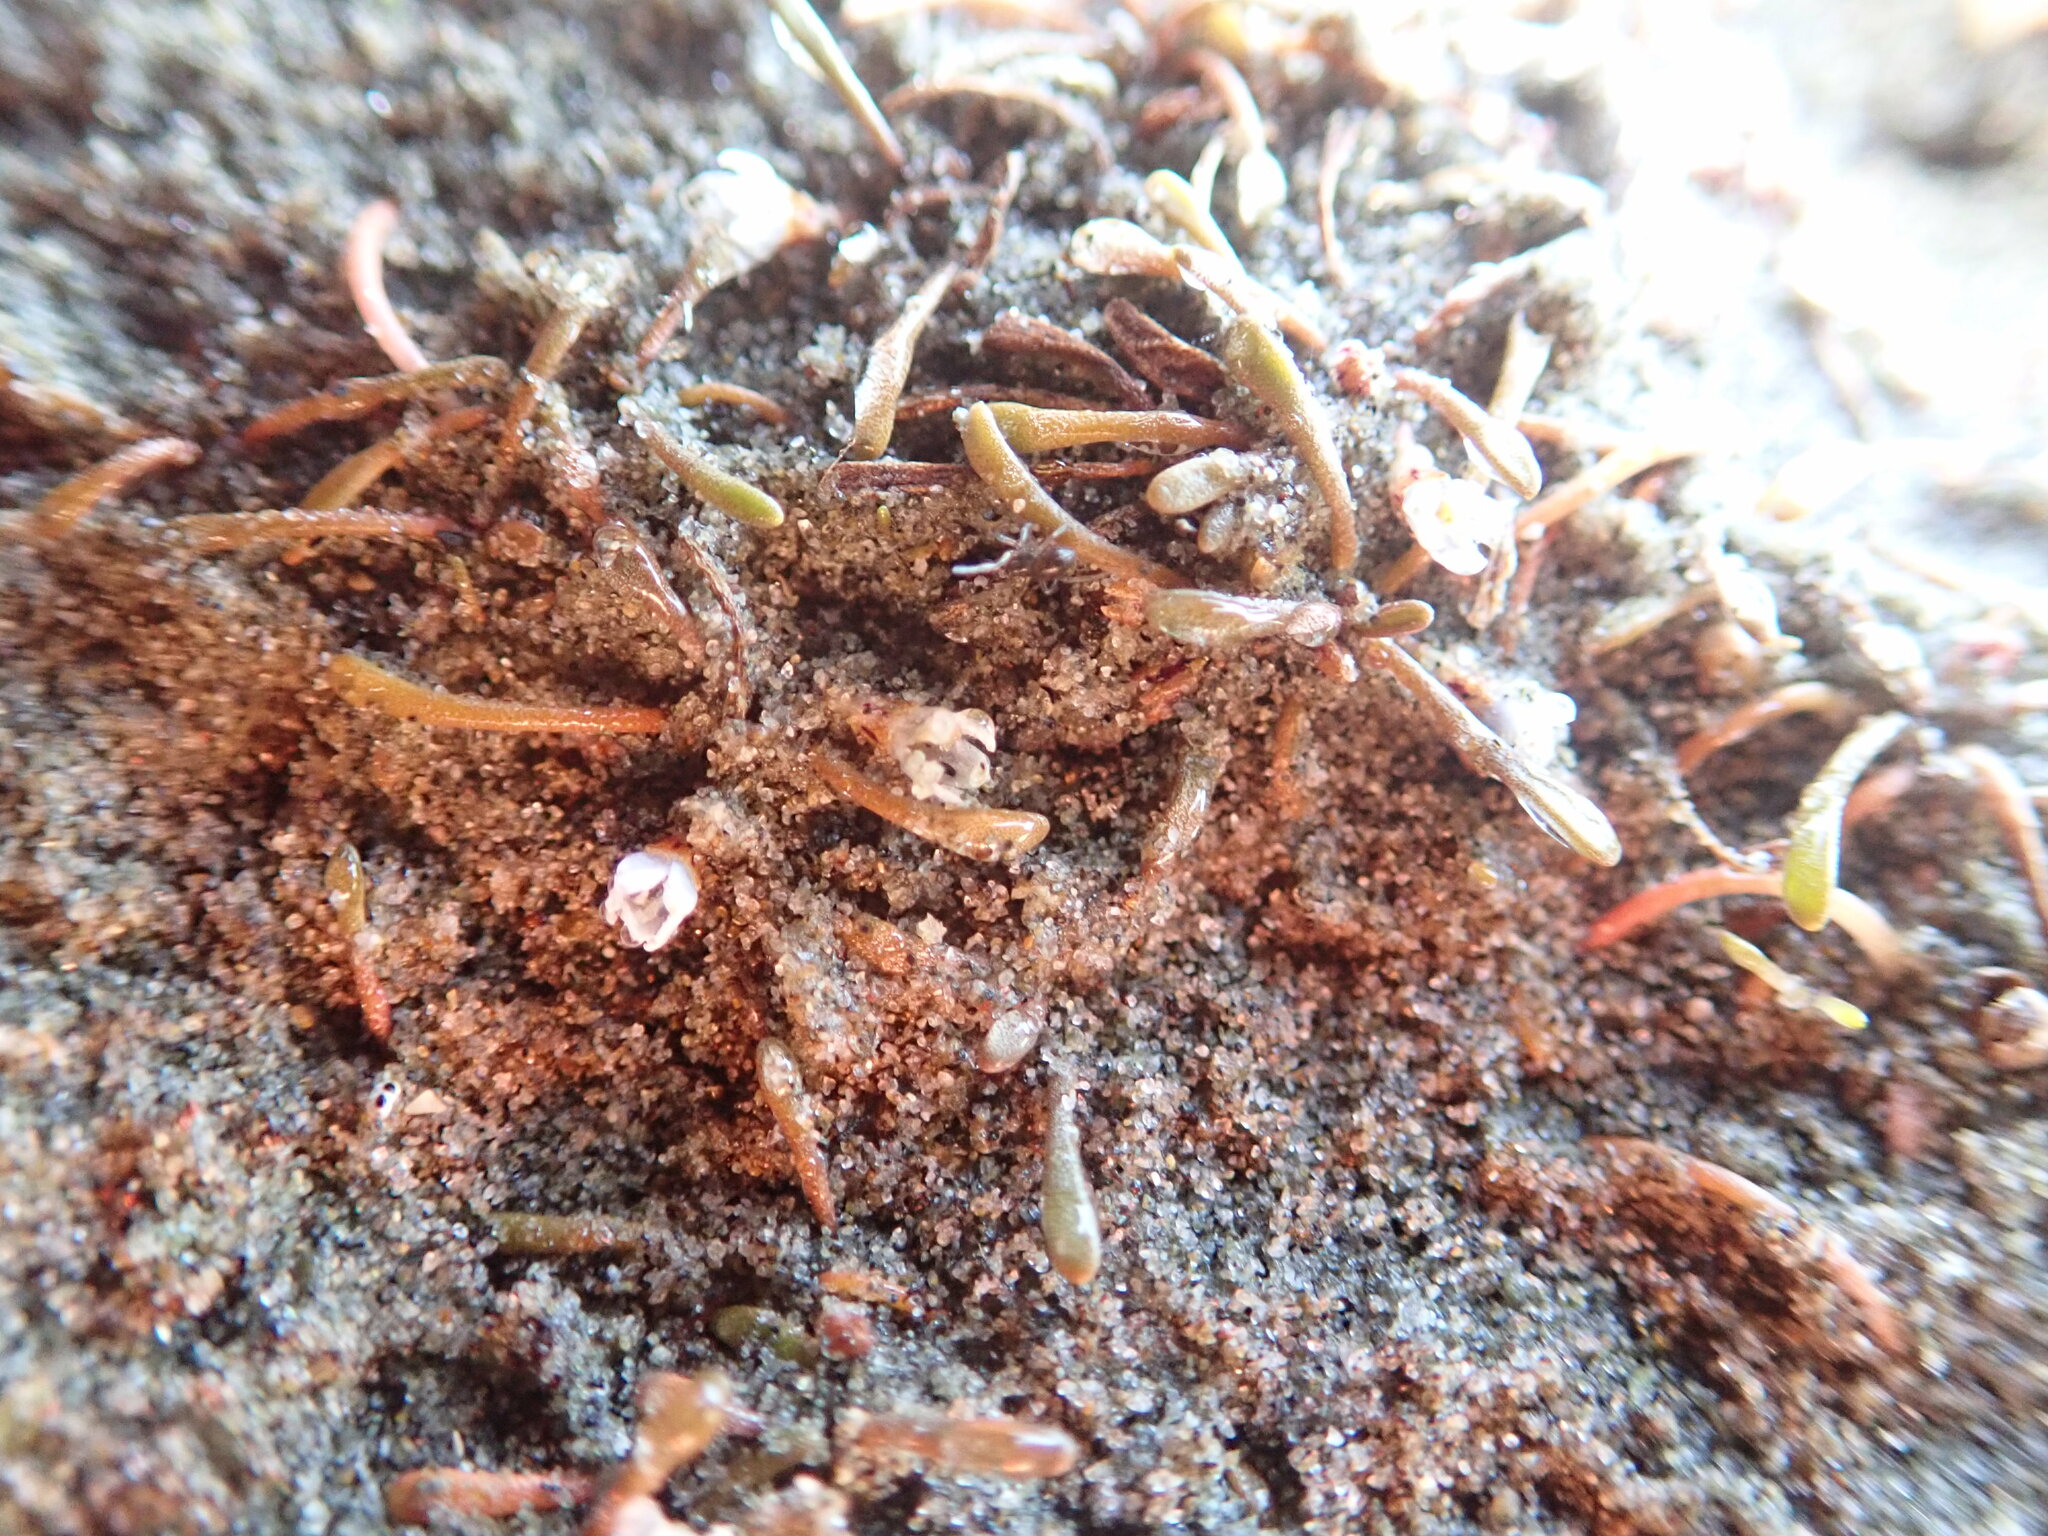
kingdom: Plantae
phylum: Tracheophyta
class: Magnoliopsida
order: Lamiales
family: Scrophulariaceae
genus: Limosella
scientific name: Limosella australis
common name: Welsh mudwort
